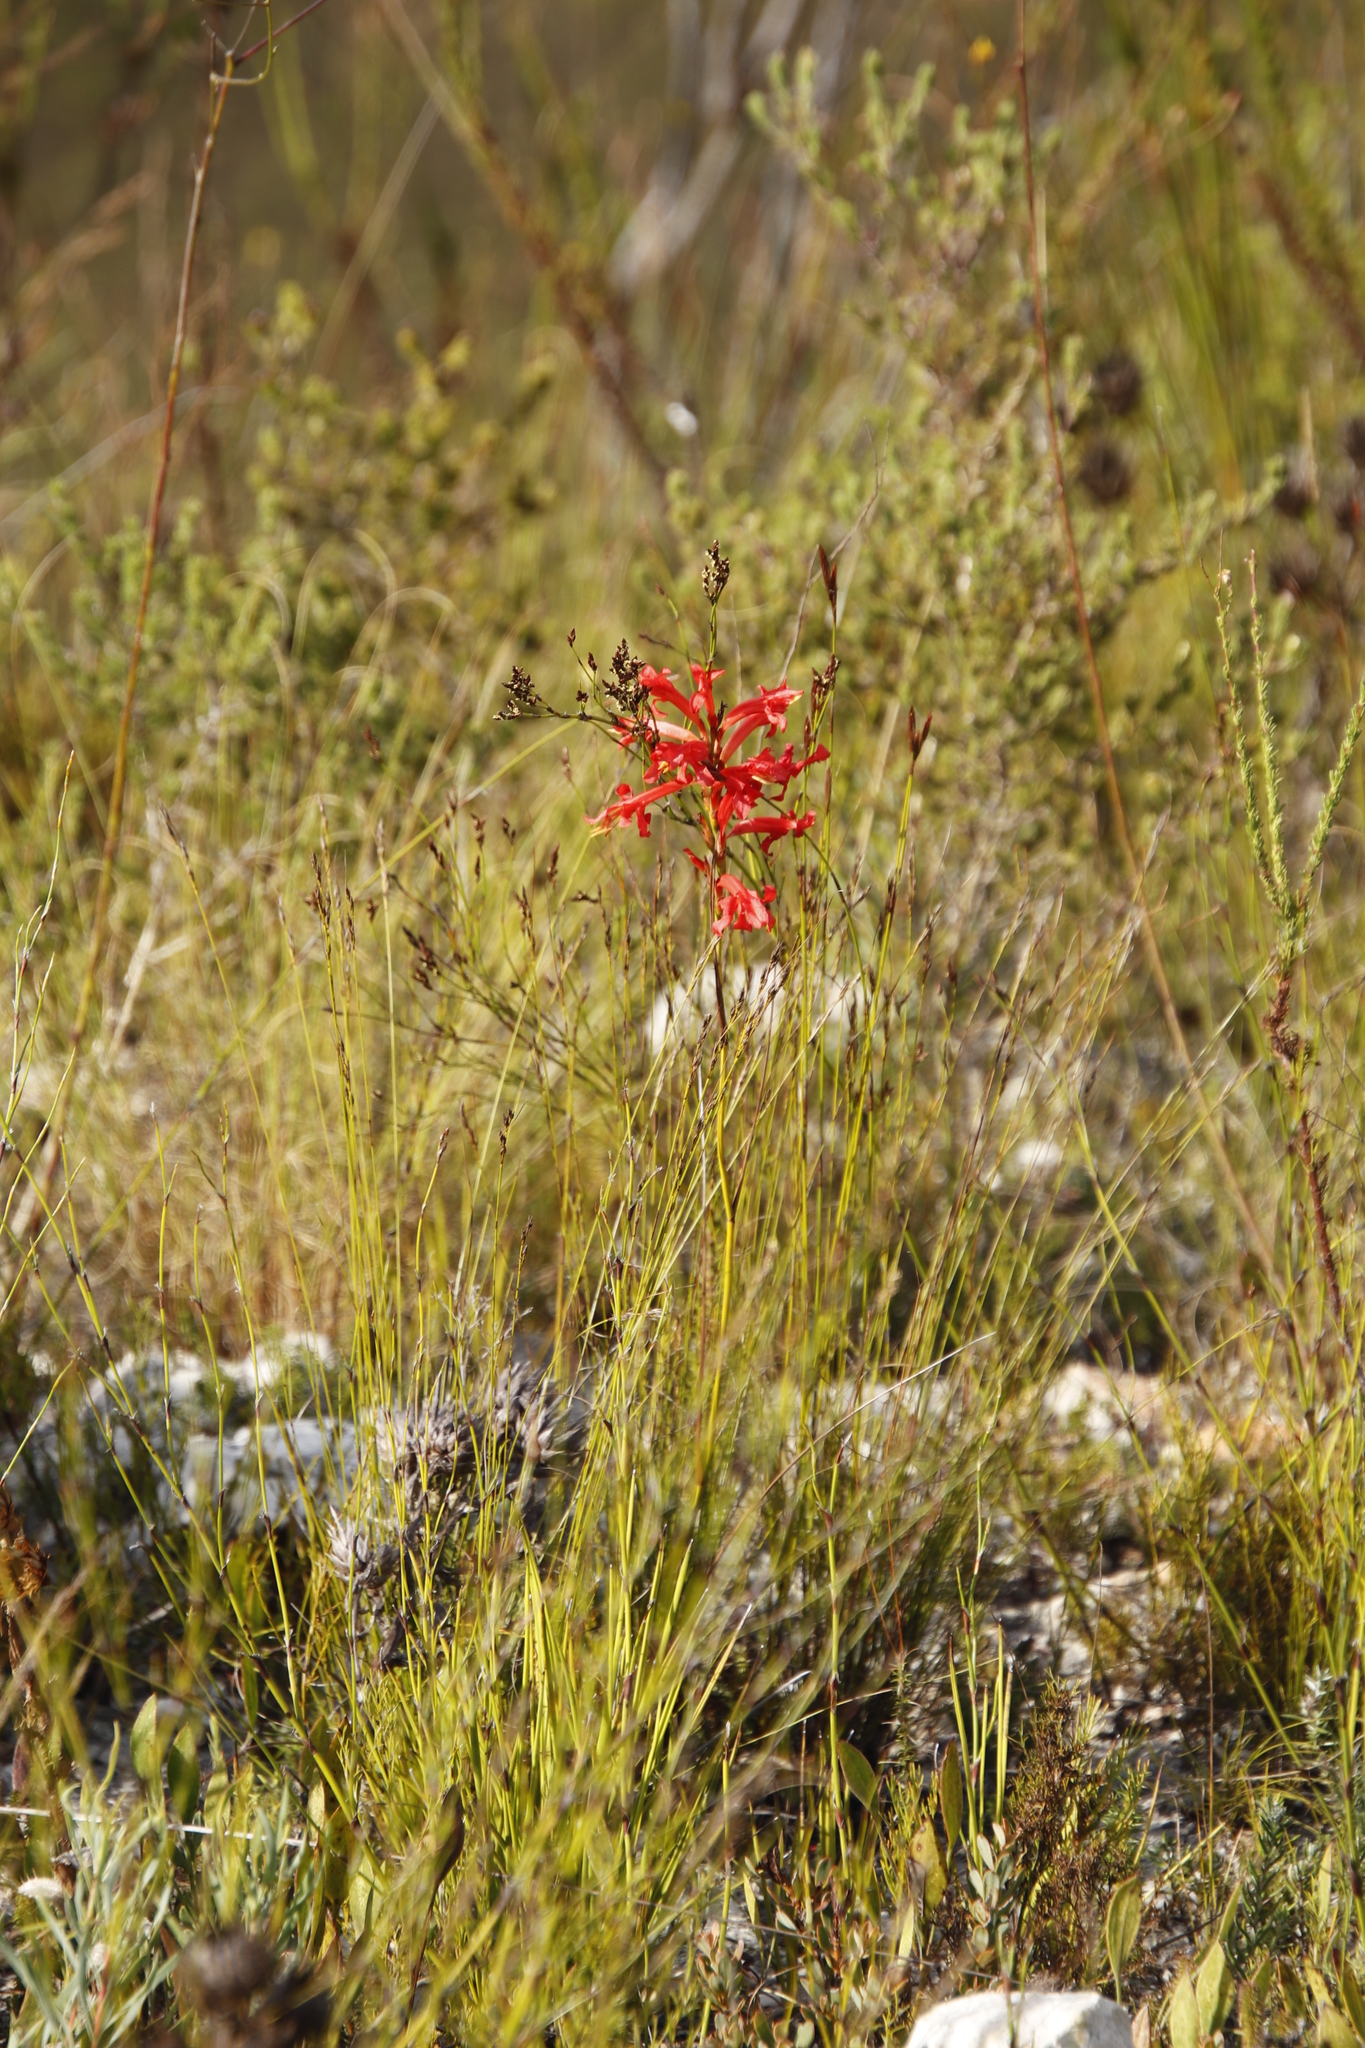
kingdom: Plantae
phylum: Tracheophyta
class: Liliopsida
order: Asparagales
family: Iridaceae
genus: Tritoniopsis
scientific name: Tritoniopsis triticea
